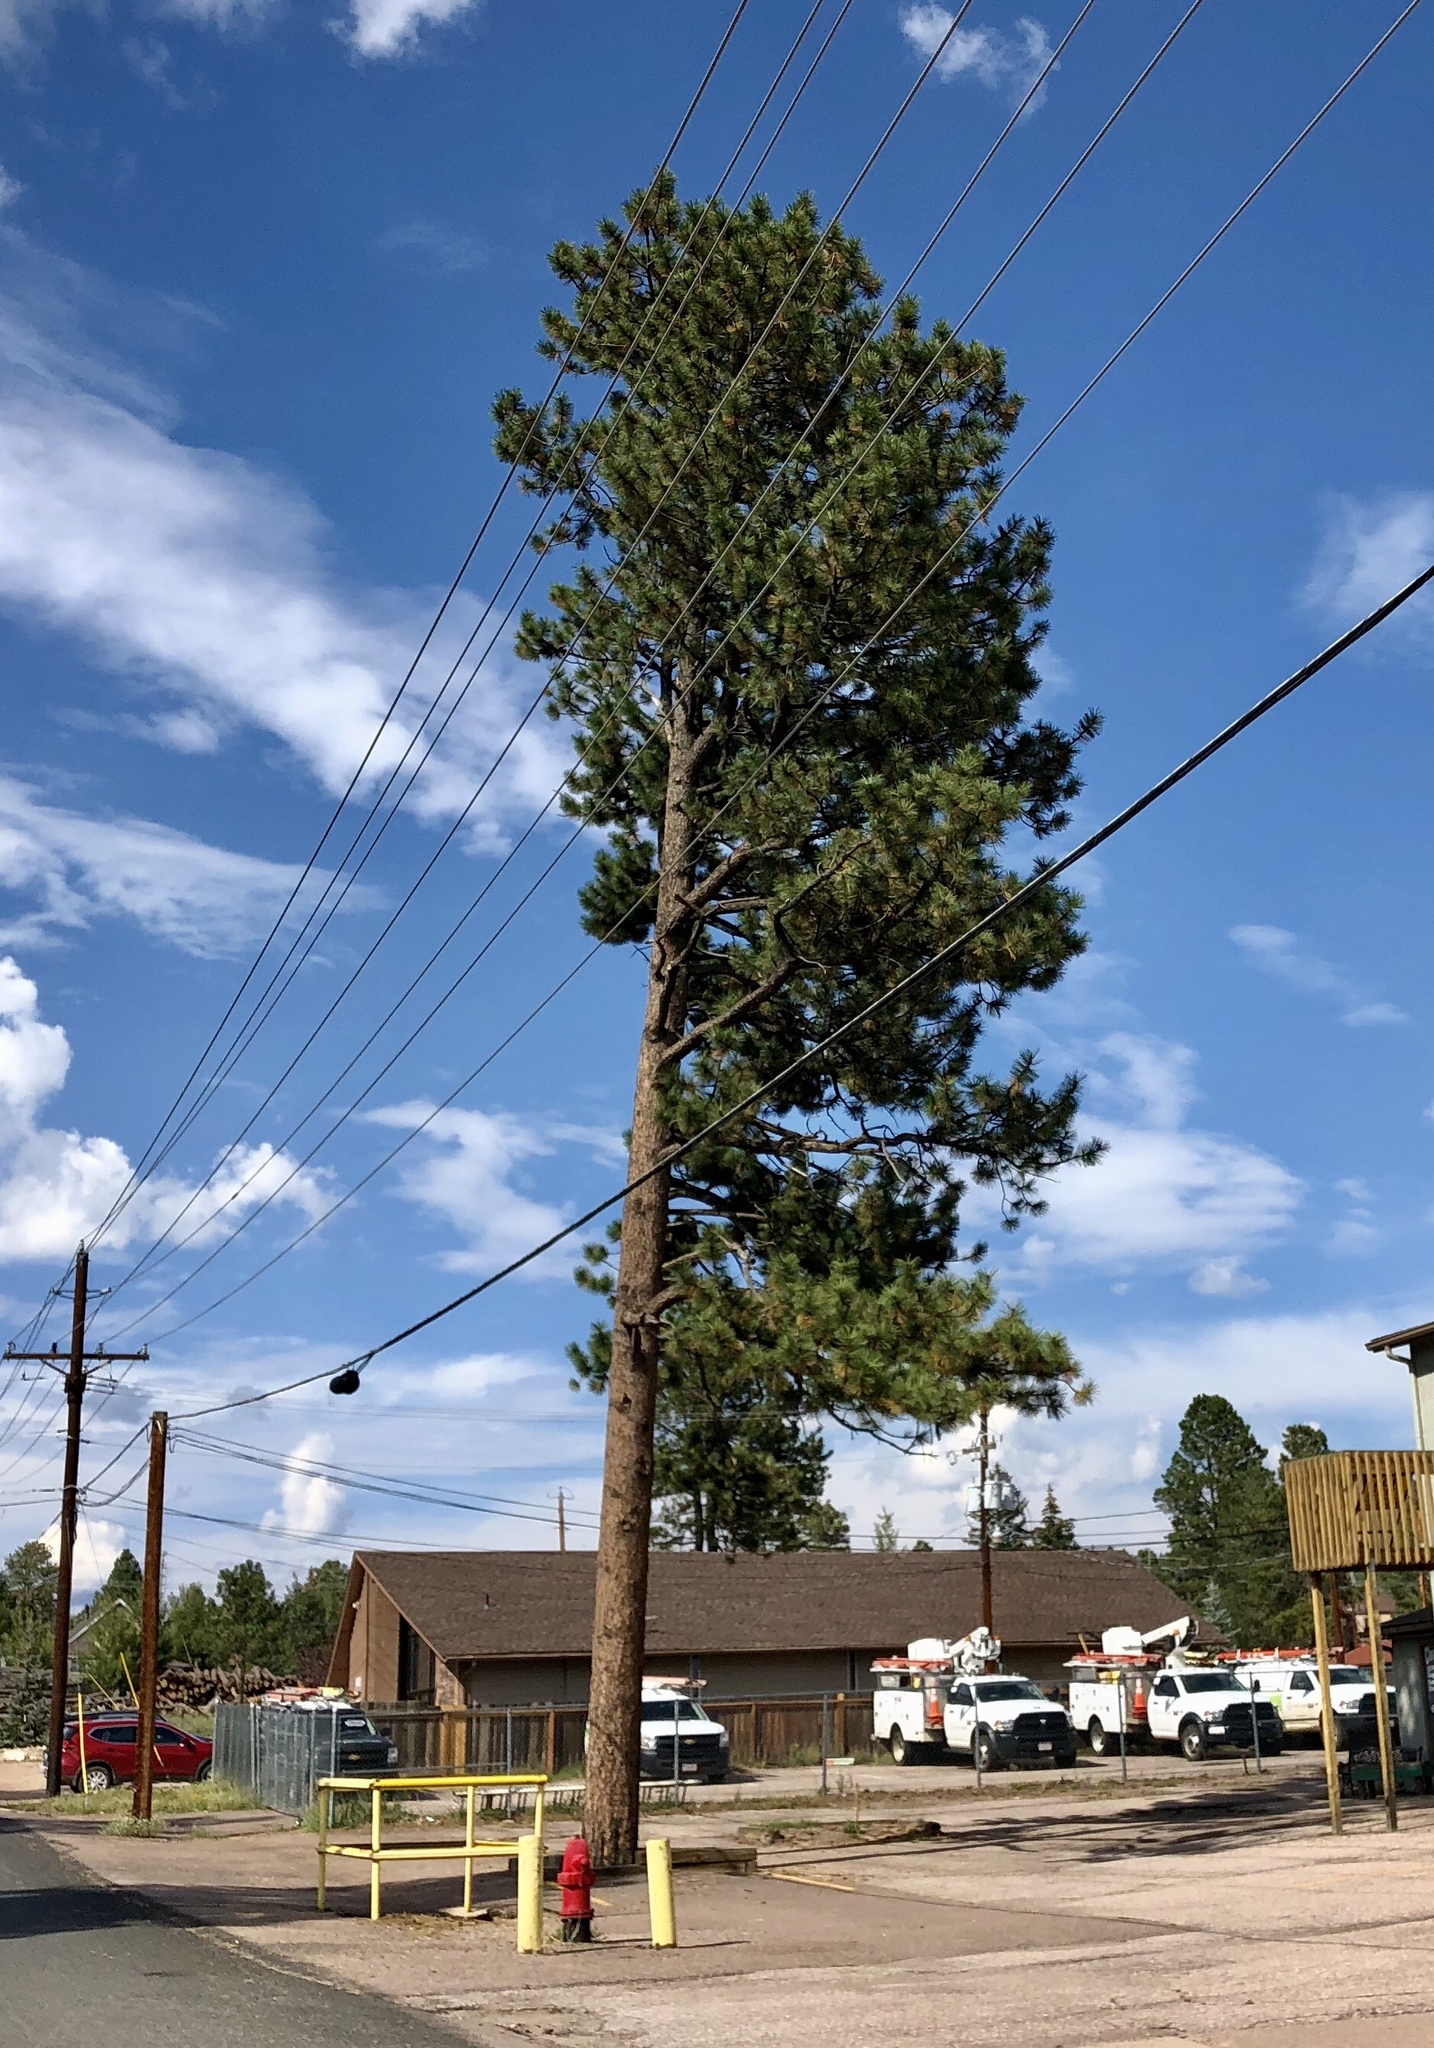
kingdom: Plantae
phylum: Tracheophyta
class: Pinopsida
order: Pinales
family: Pinaceae
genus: Pinus
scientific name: Pinus ponderosa
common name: Western yellow-pine
